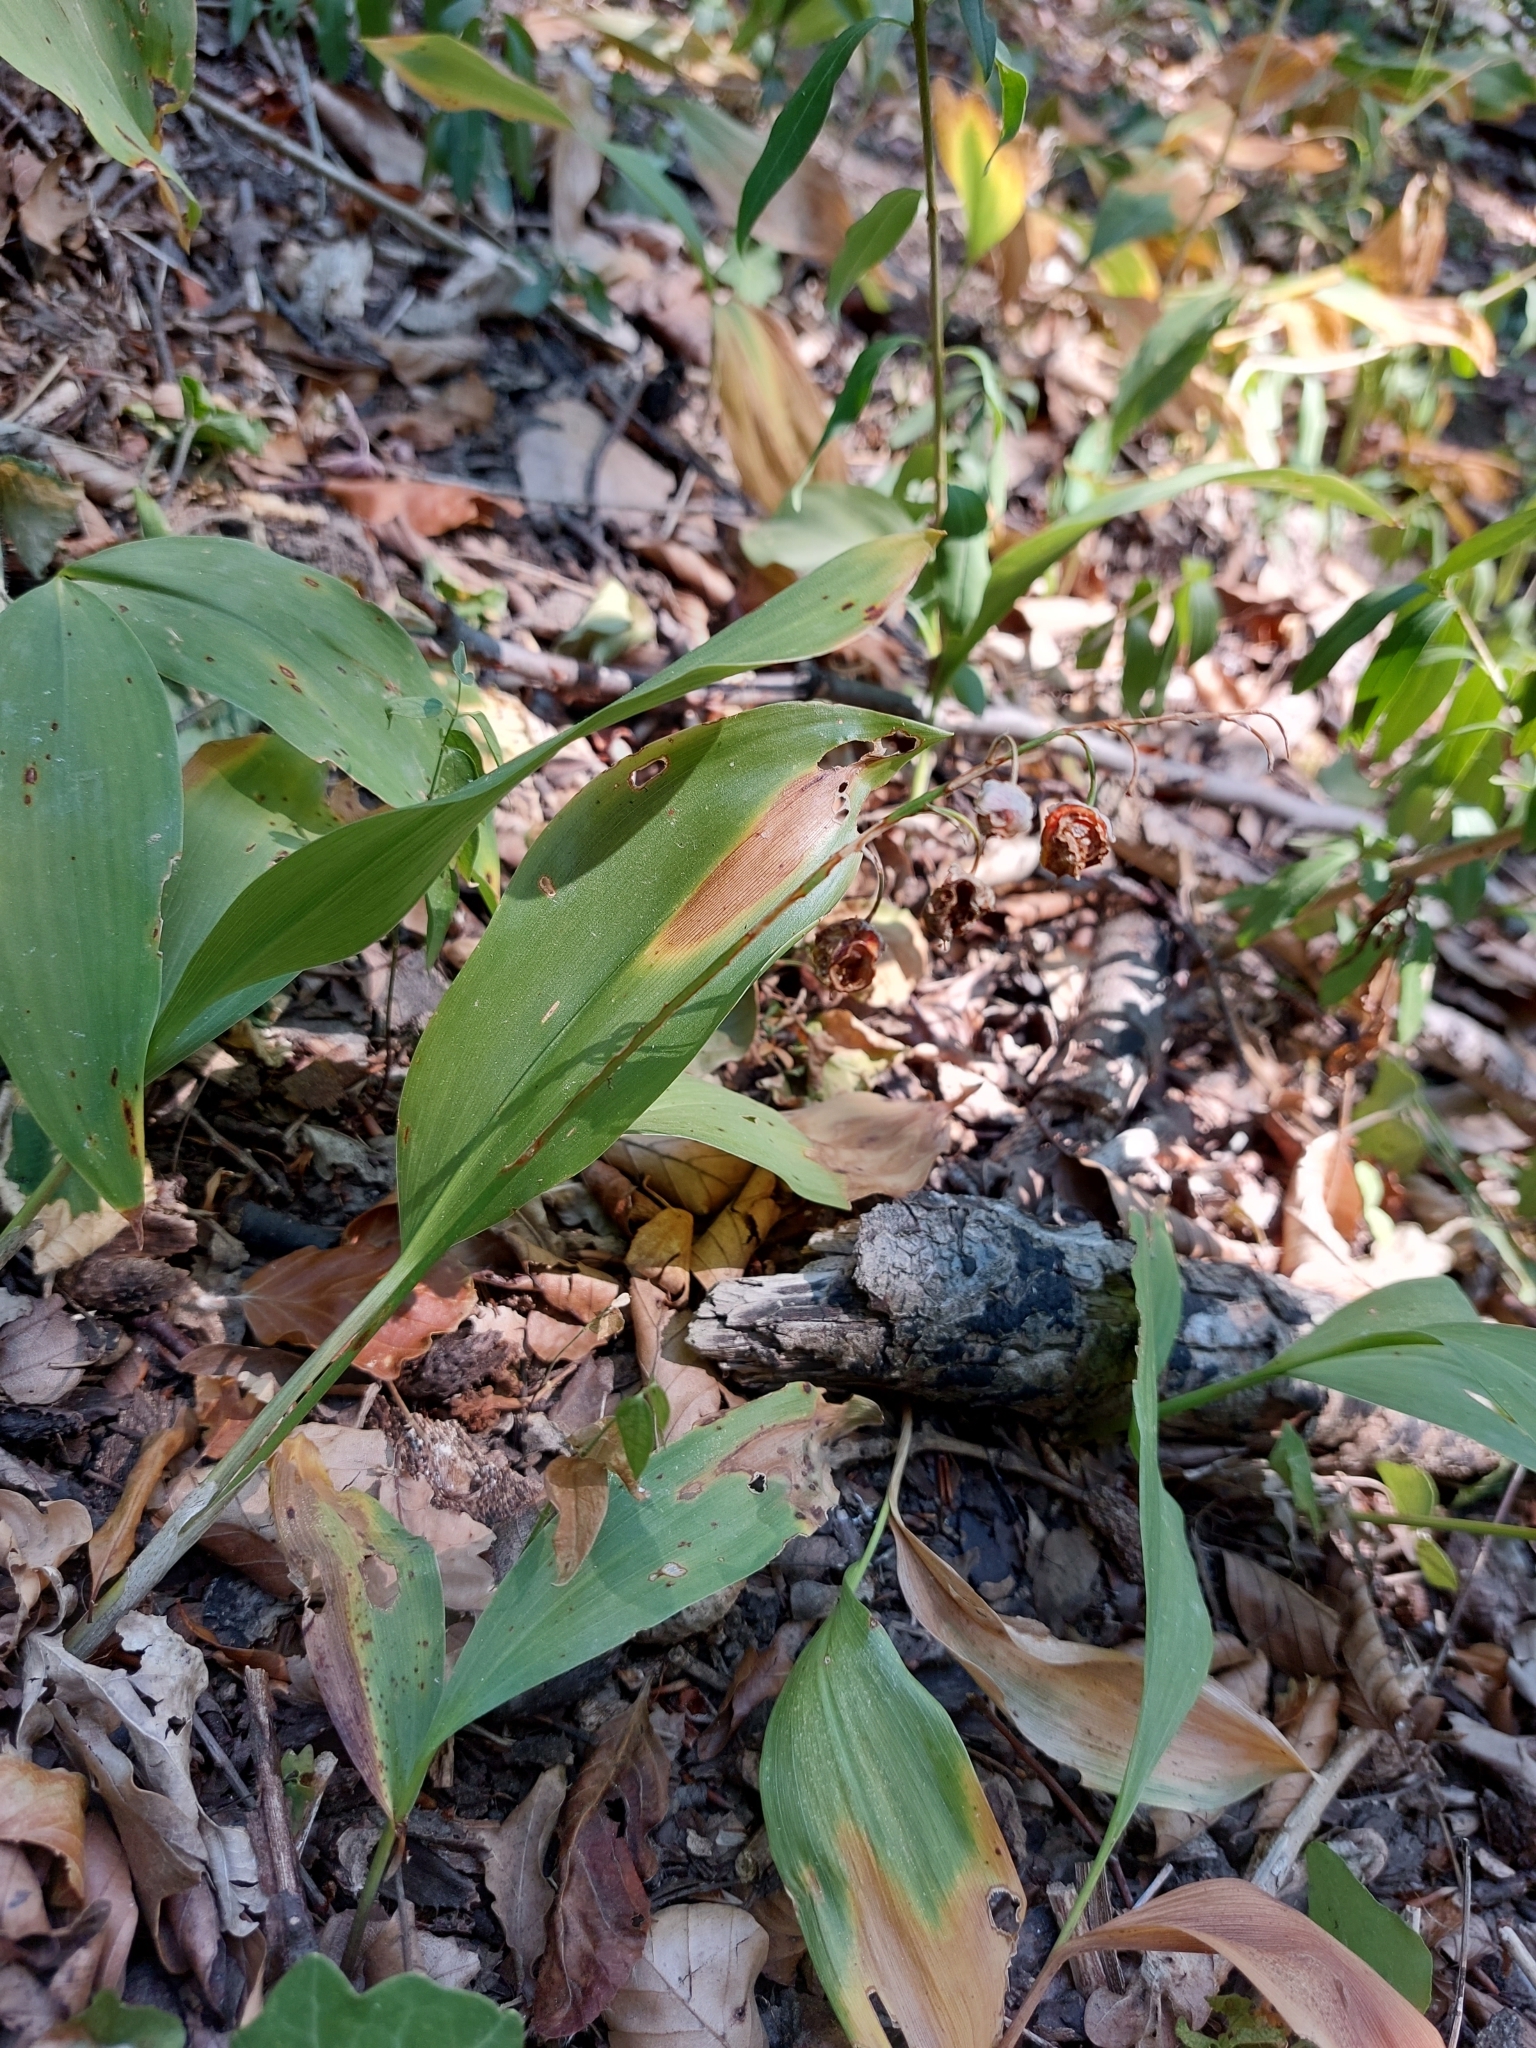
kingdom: Plantae
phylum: Tracheophyta
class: Liliopsida
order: Asparagales
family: Asparagaceae
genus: Convallaria
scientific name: Convallaria majalis
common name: Lily-of-the-valley
